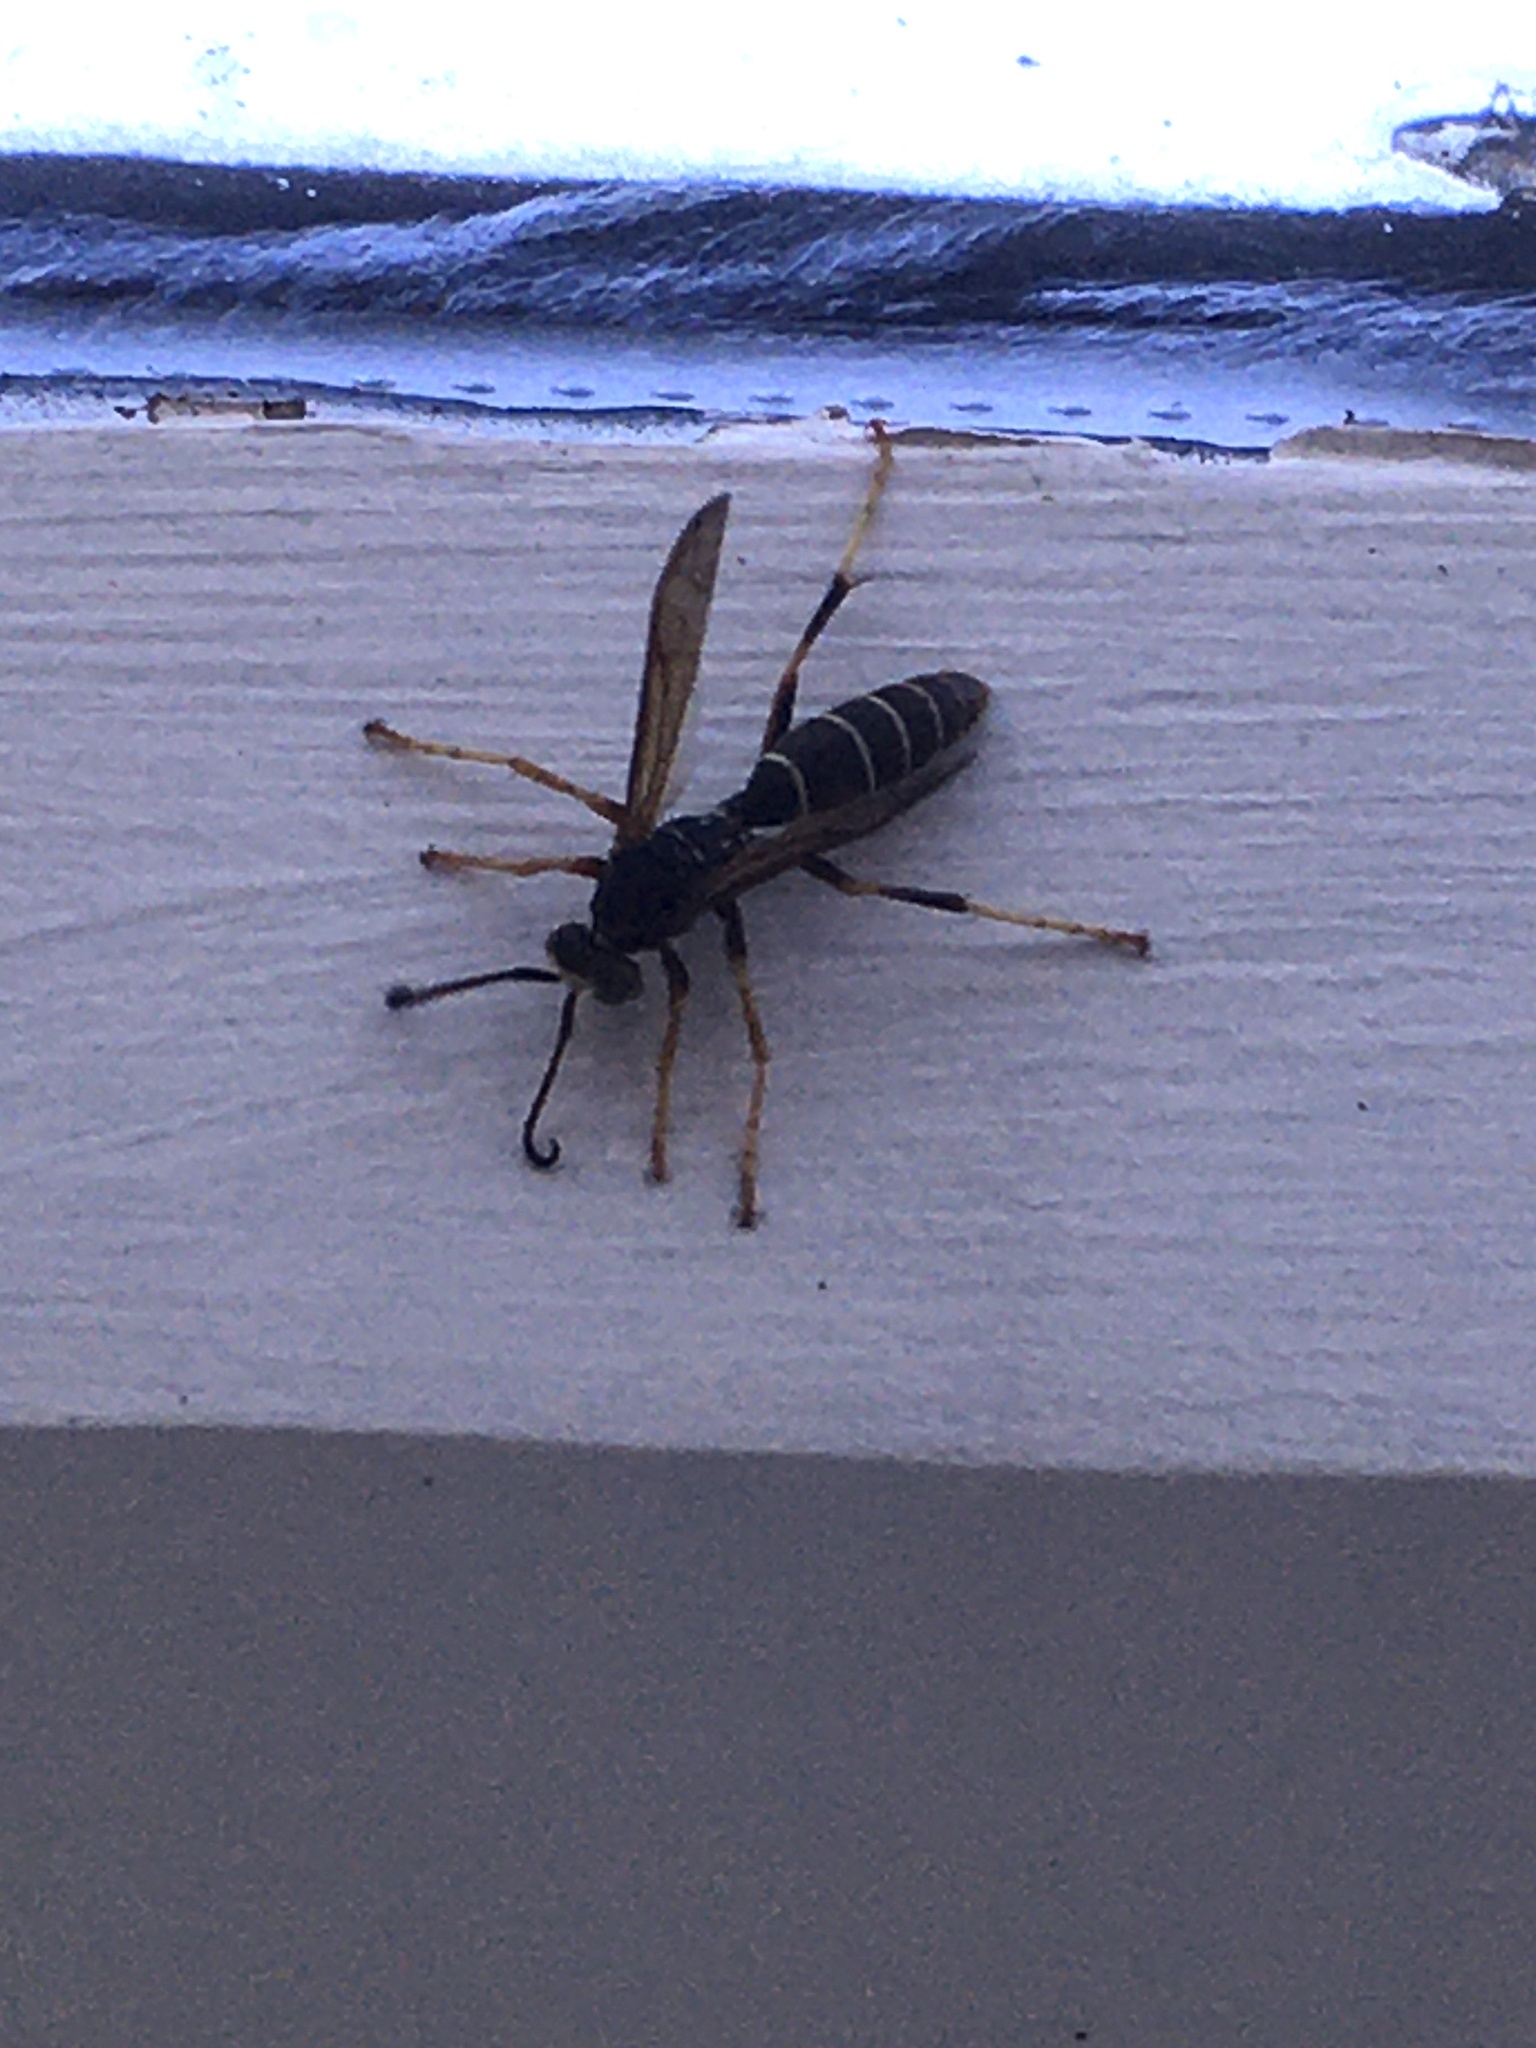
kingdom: Animalia
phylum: Arthropoda
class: Insecta
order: Hymenoptera
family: Eumenidae
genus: Polistes
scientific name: Polistes fuscatus
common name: Dark paper wasp
